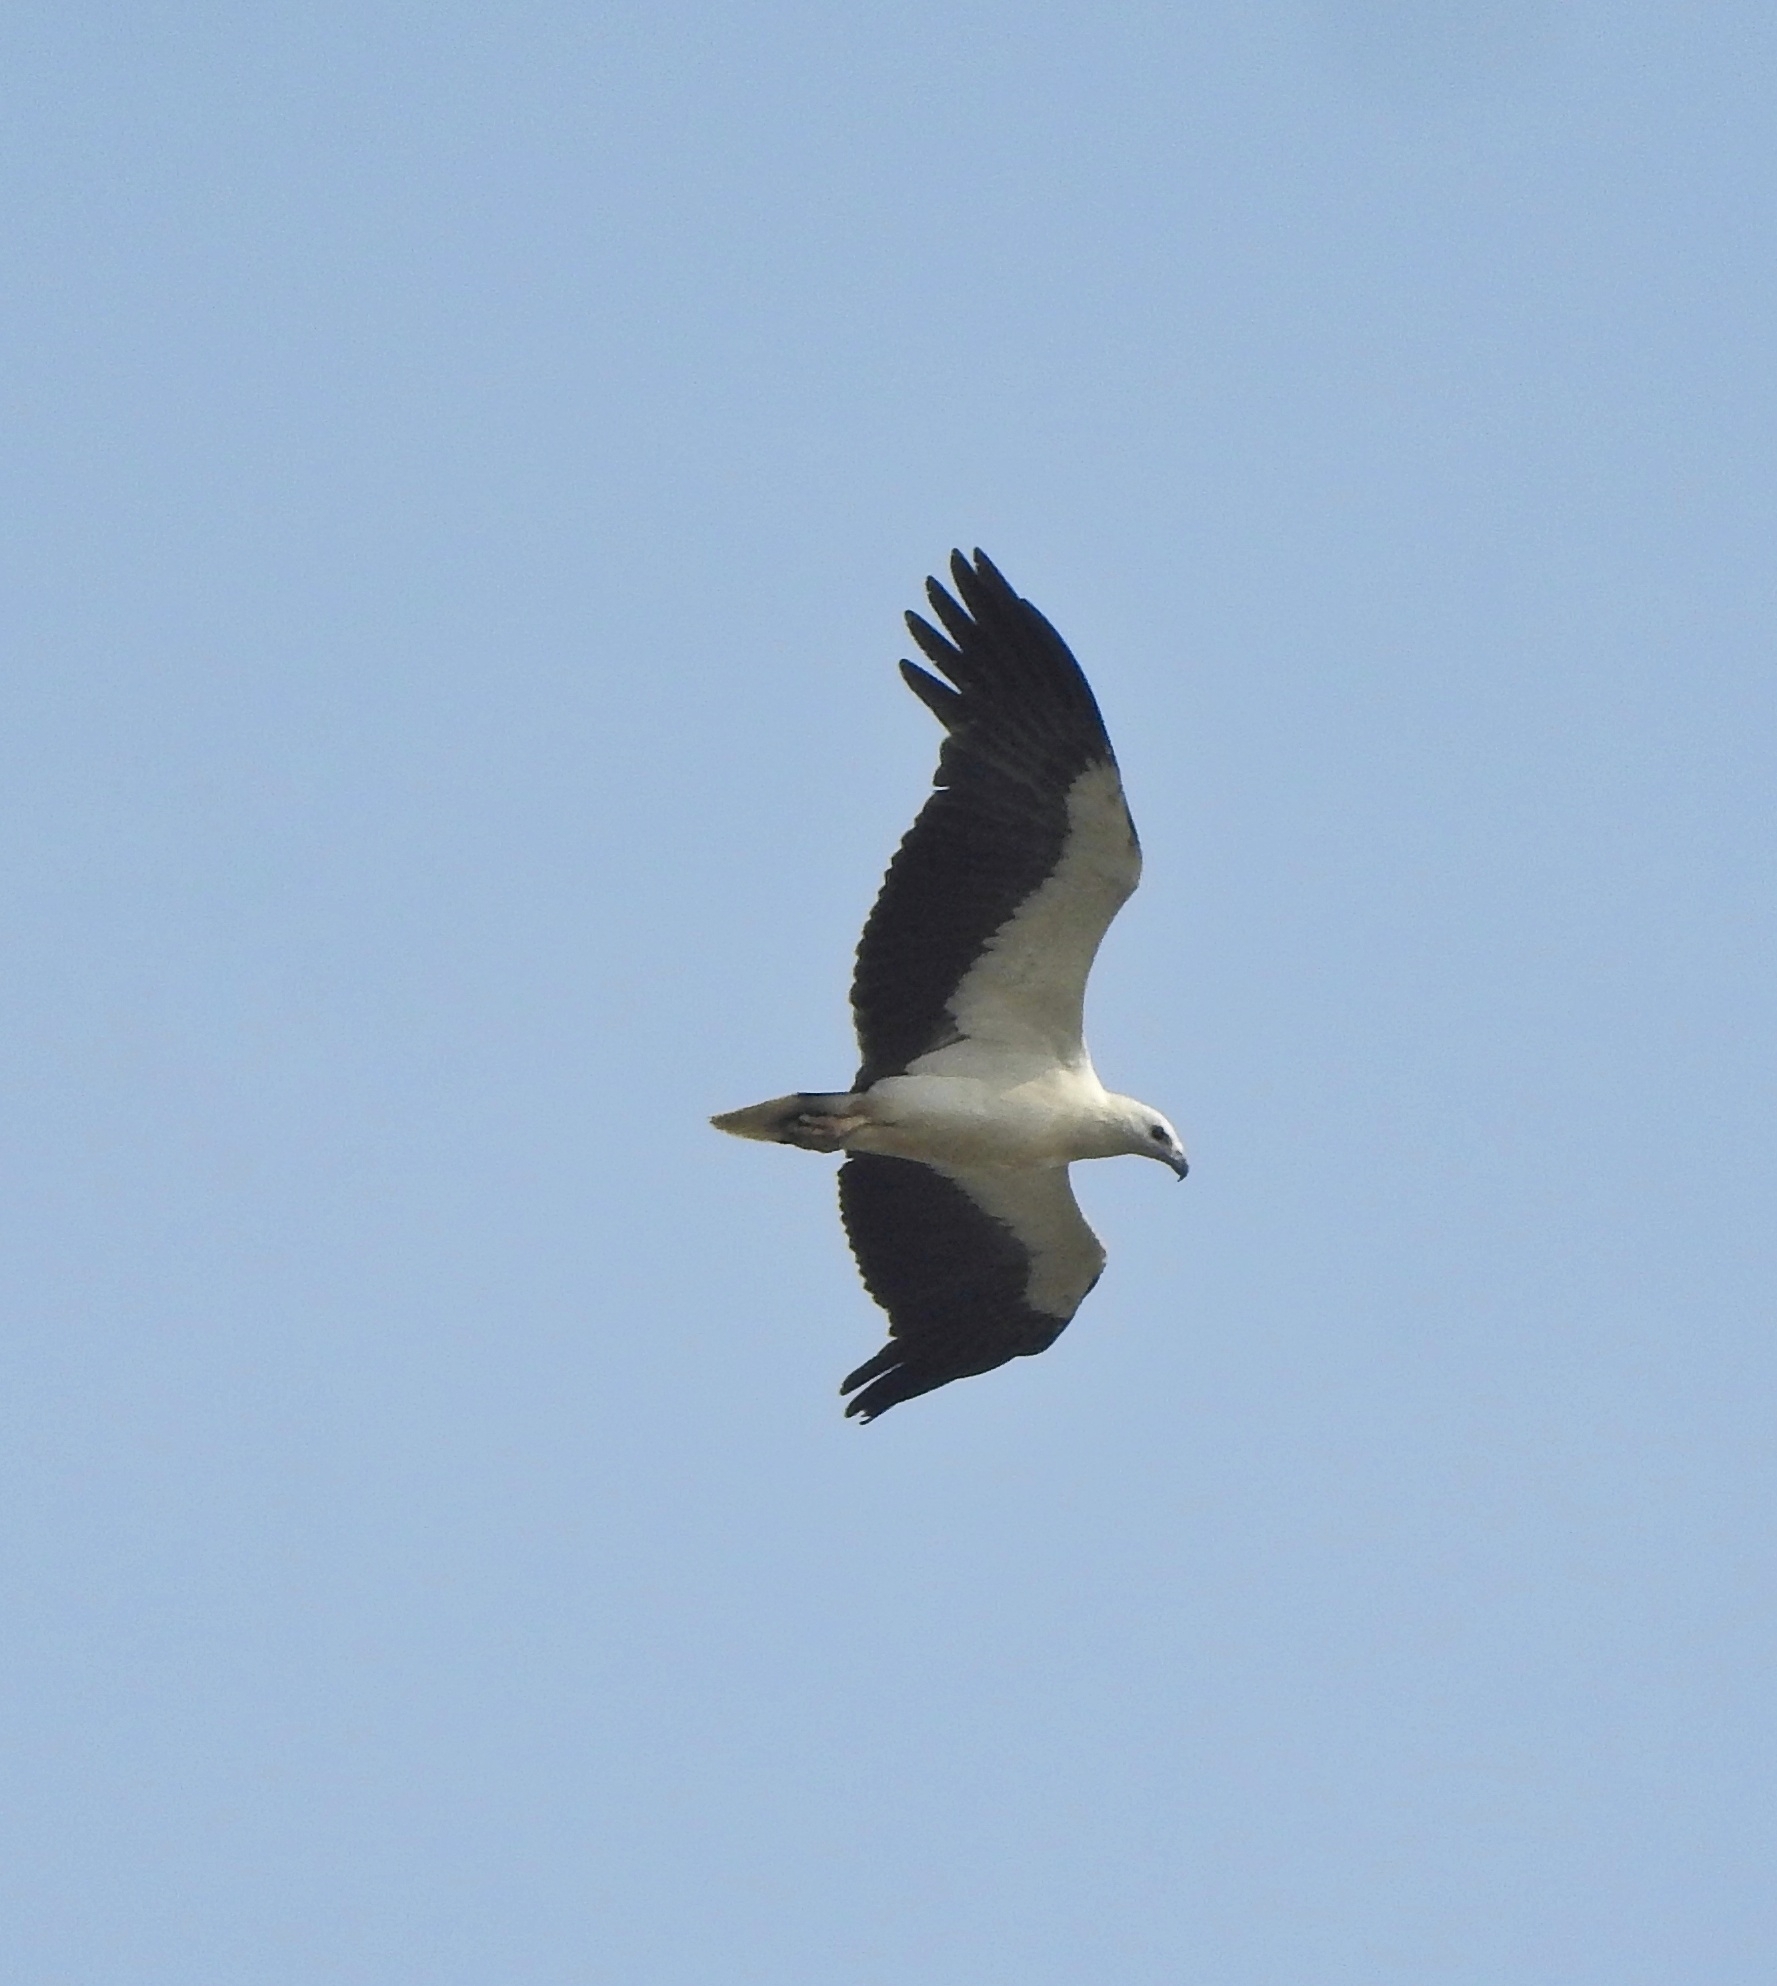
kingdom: Animalia
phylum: Chordata
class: Aves
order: Accipitriformes
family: Accipitridae
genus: Haliaeetus
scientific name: Haliaeetus leucogaster
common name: White-bellied sea eagle
